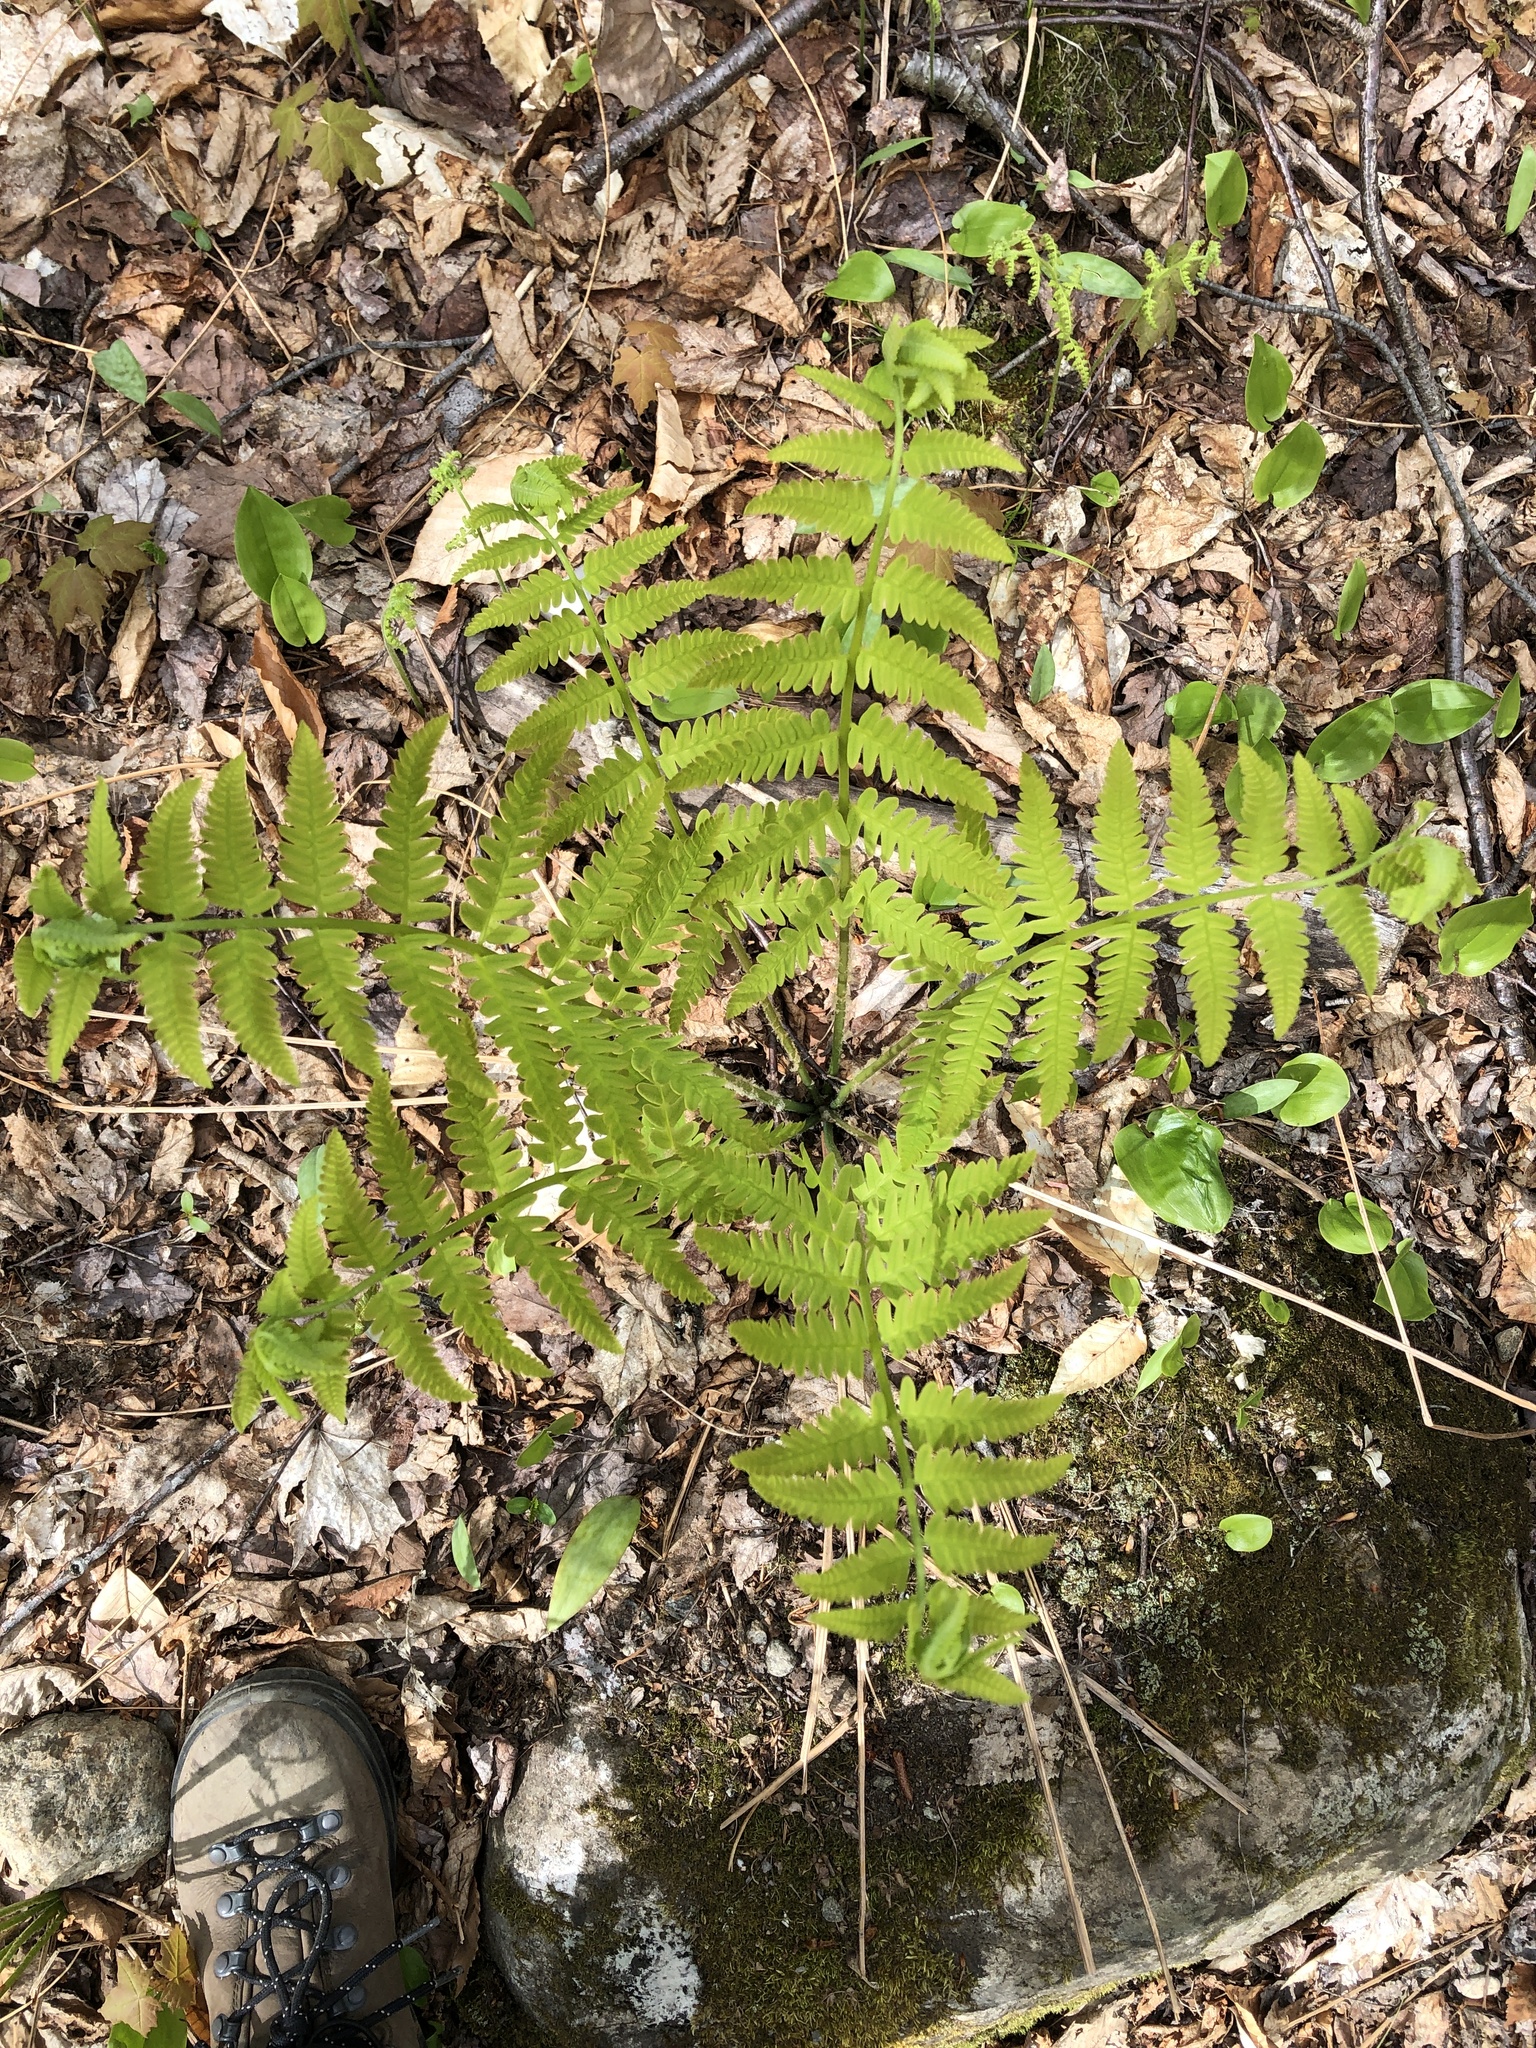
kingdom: Plantae
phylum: Tracheophyta
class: Polypodiopsida
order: Osmundales
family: Osmundaceae
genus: Claytosmunda
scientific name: Claytosmunda claytoniana
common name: Clayton's fern
